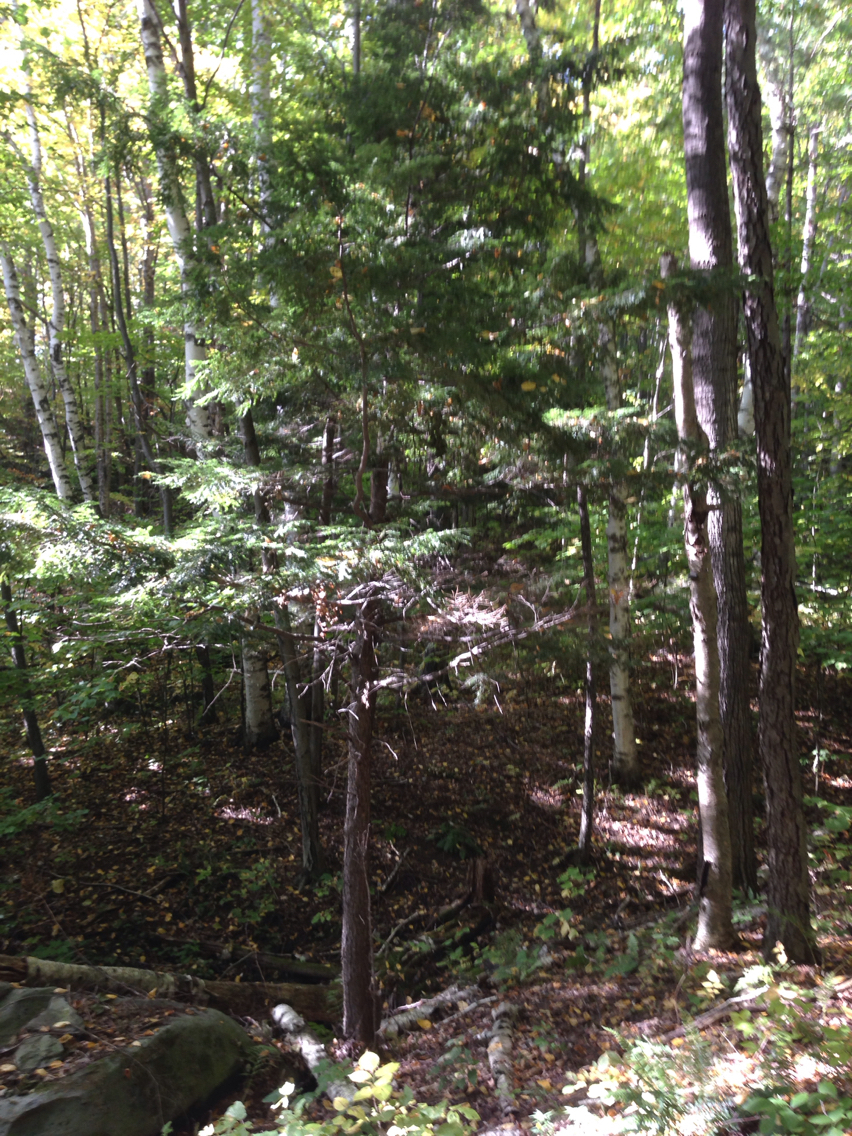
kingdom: Plantae
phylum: Tracheophyta
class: Pinopsida
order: Pinales
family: Pinaceae
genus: Tsuga
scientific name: Tsuga canadensis
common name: Eastern hemlock
